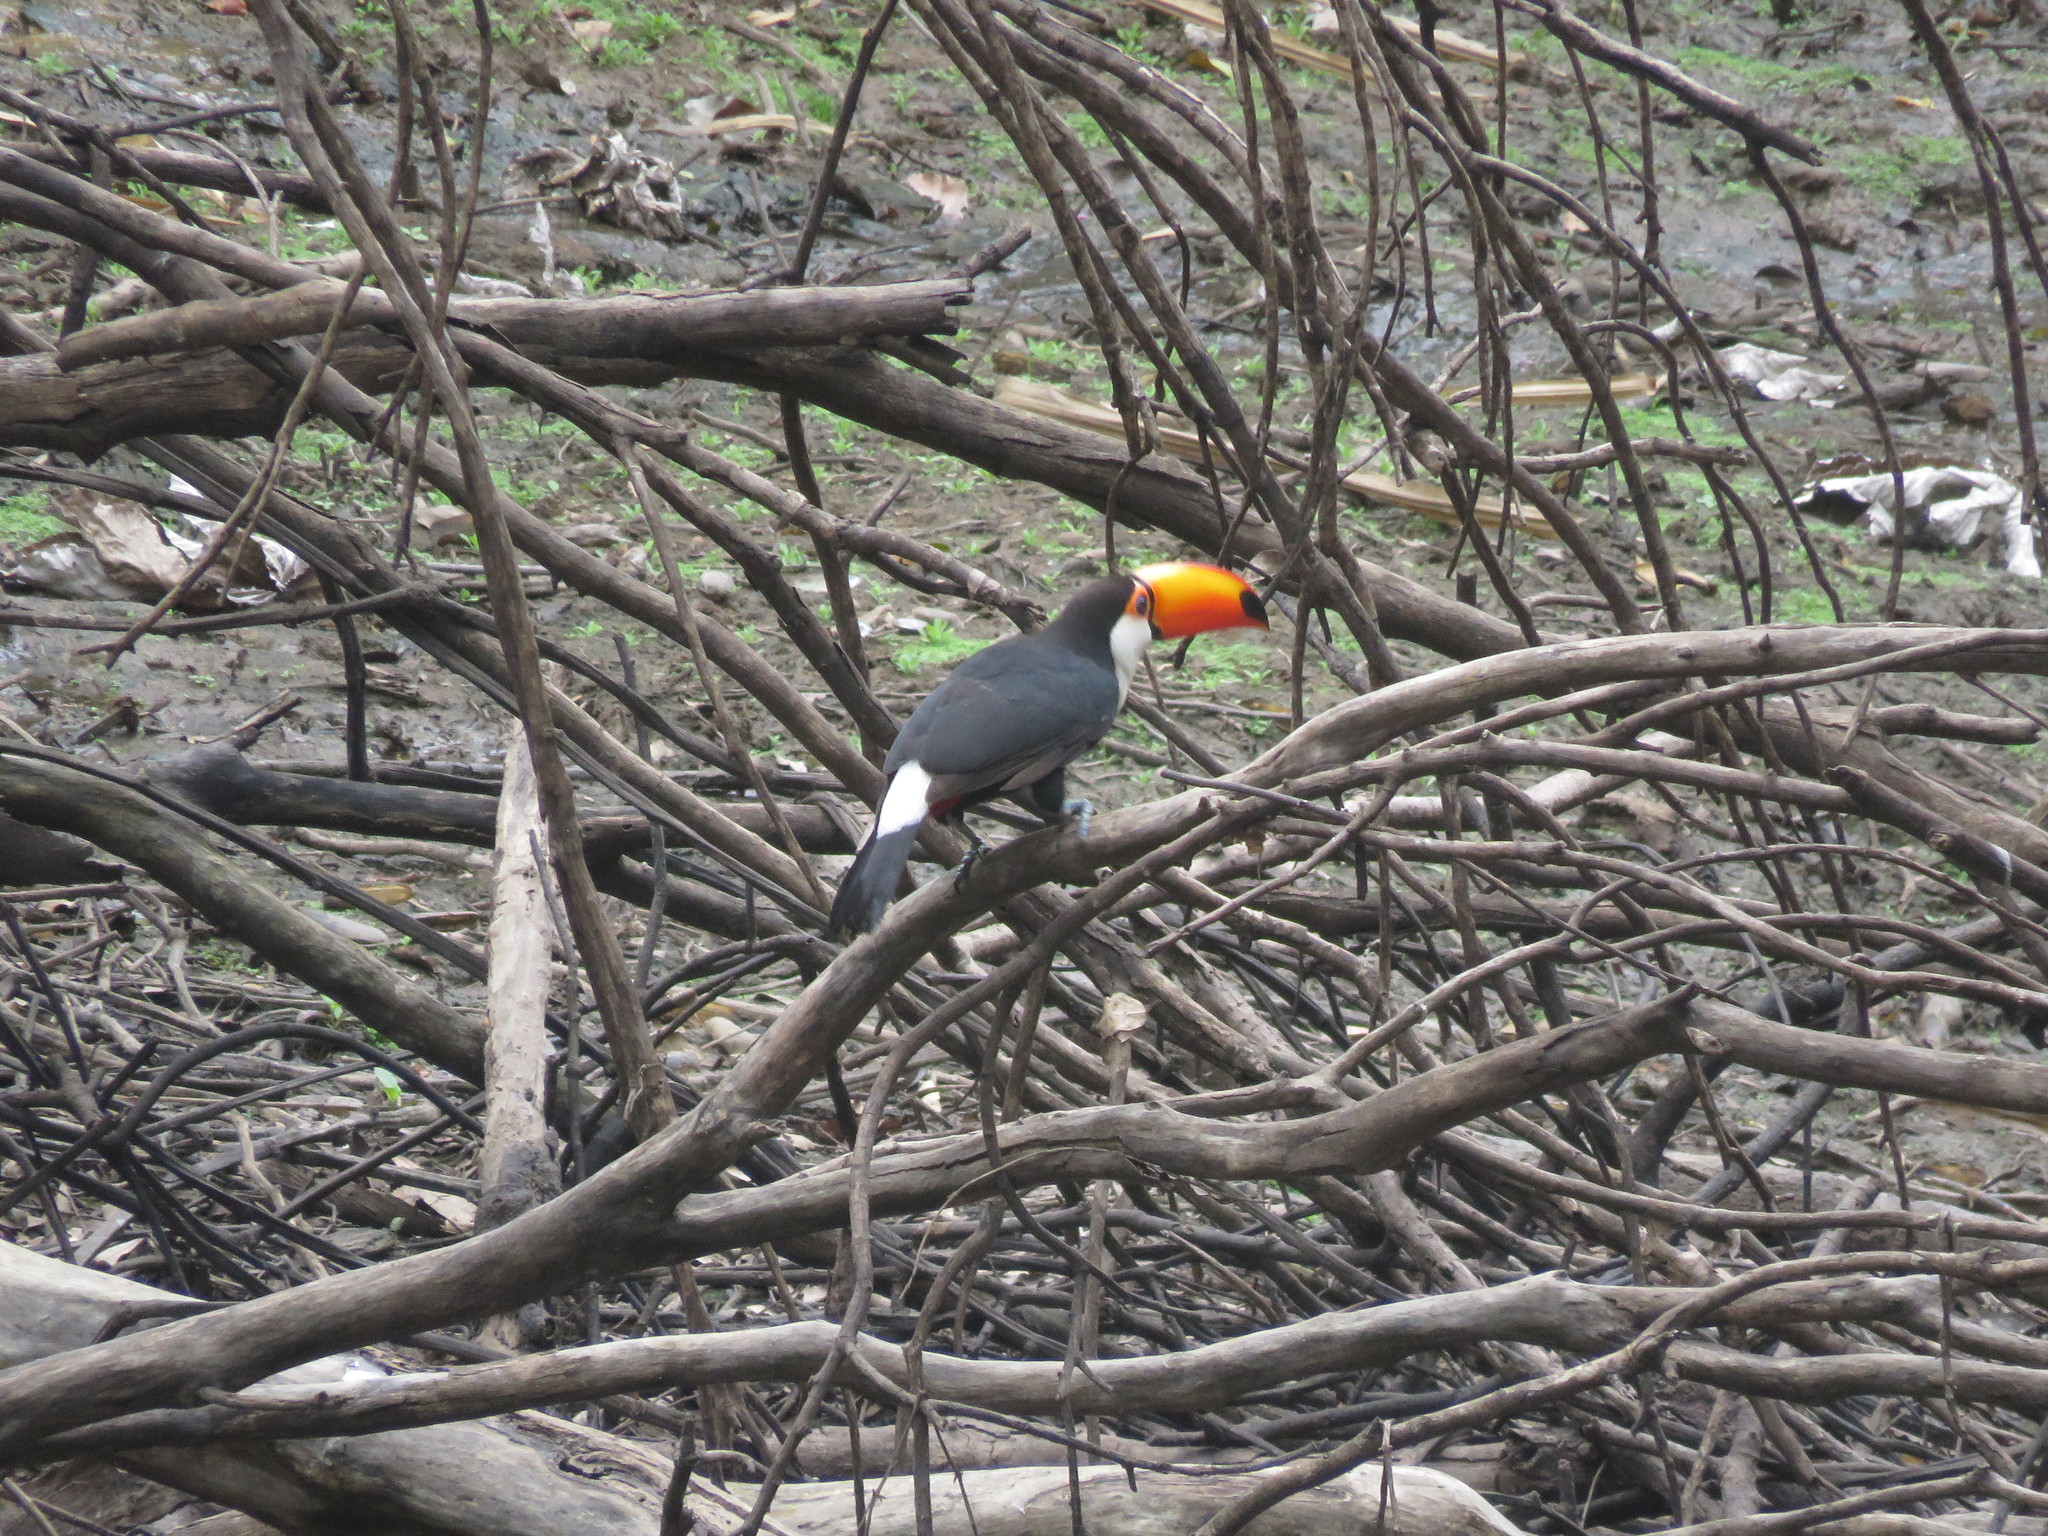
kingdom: Animalia
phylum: Chordata
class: Aves
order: Piciformes
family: Ramphastidae
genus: Ramphastos
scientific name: Ramphastos toco
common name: Toco toucan
